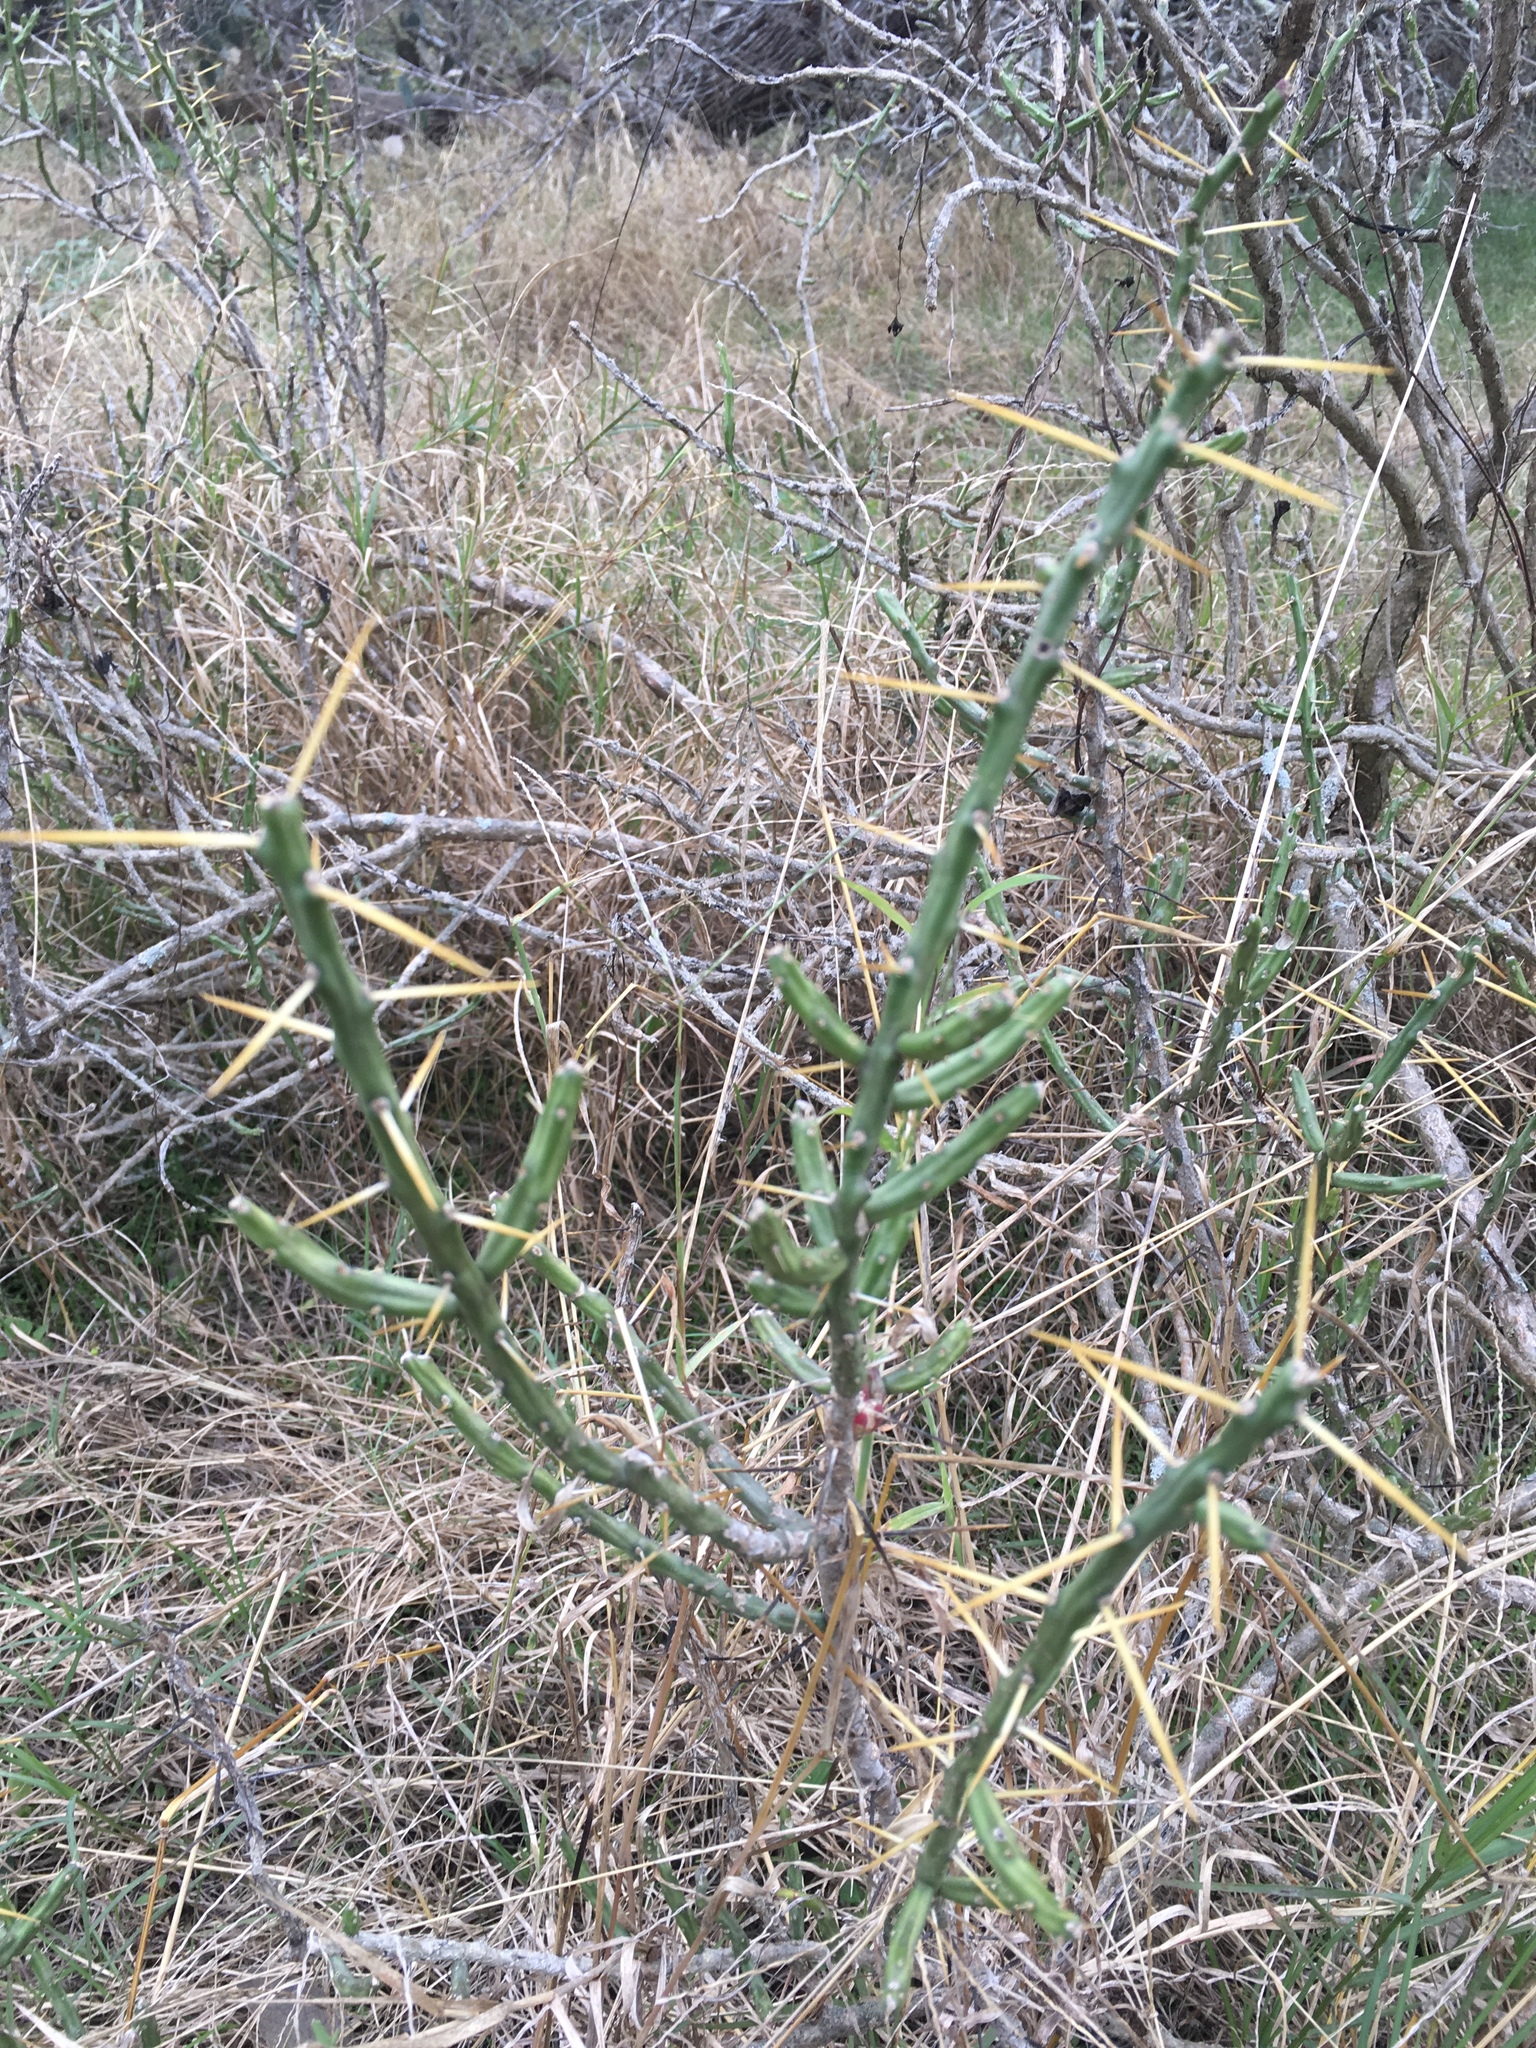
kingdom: Plantae
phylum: Tracheophyta
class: Magnoliopsida
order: Caryophyllales
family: Cactaceae
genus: Cylindropuntia
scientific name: Cylindropuntia leptocaulis
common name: Christmas cactus
